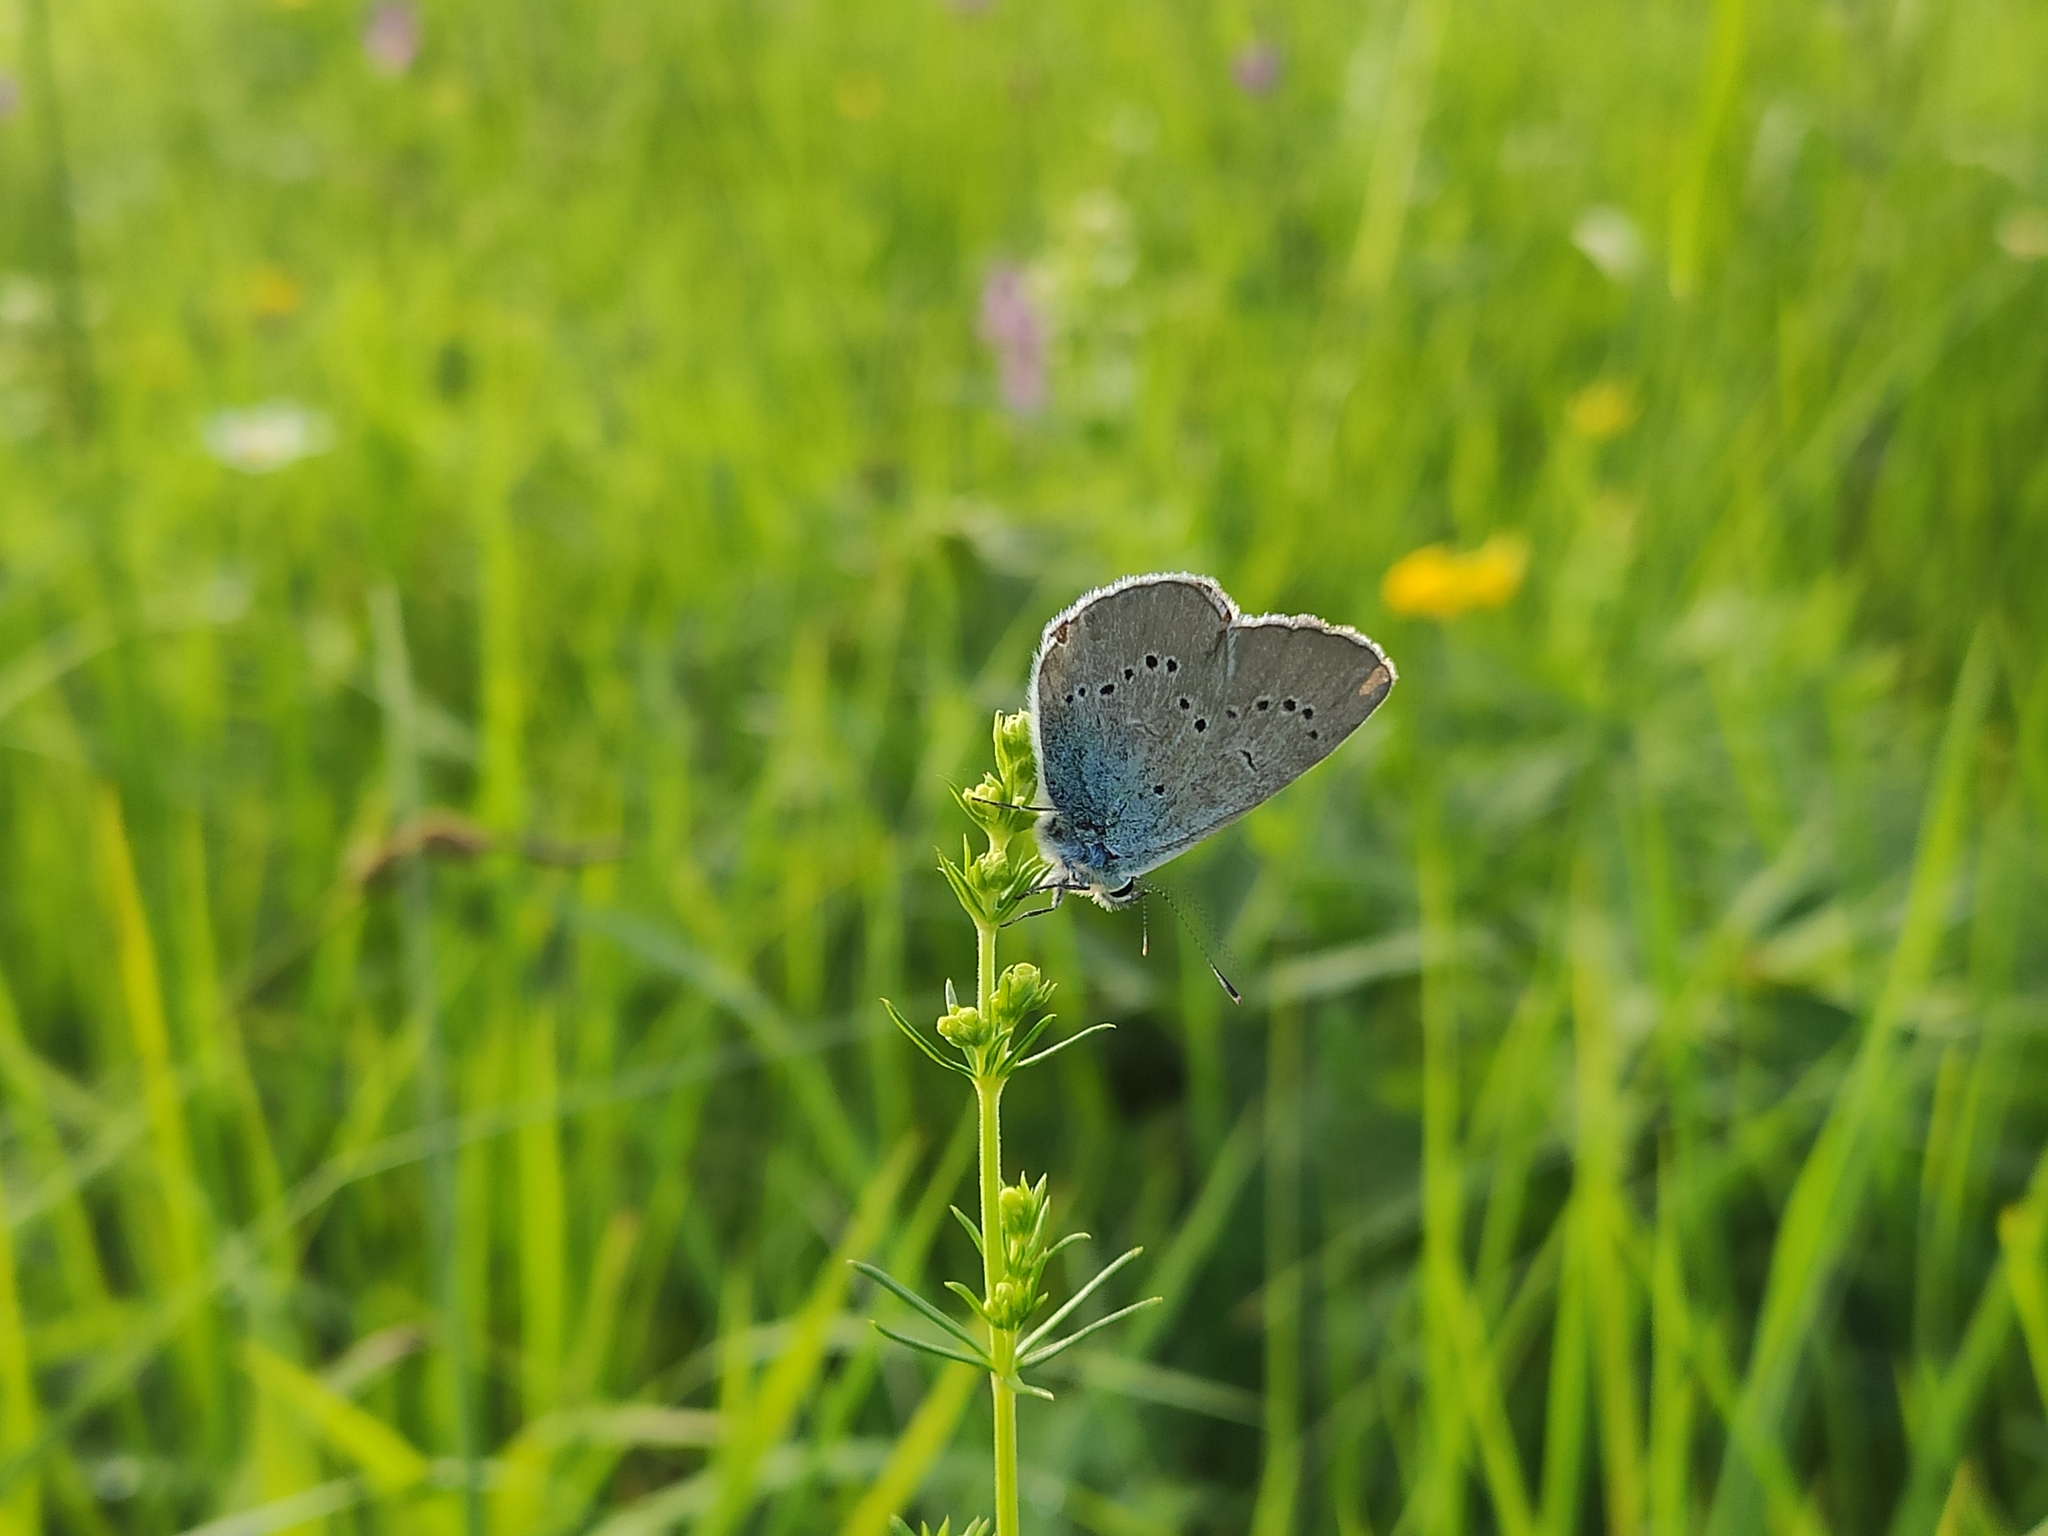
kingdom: Animalia
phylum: Arthropoda
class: Insecta
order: Lepidoptera
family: Lycaenidae
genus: Cyaniris
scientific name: Cyaniris semiargus
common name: Mazarine blue
